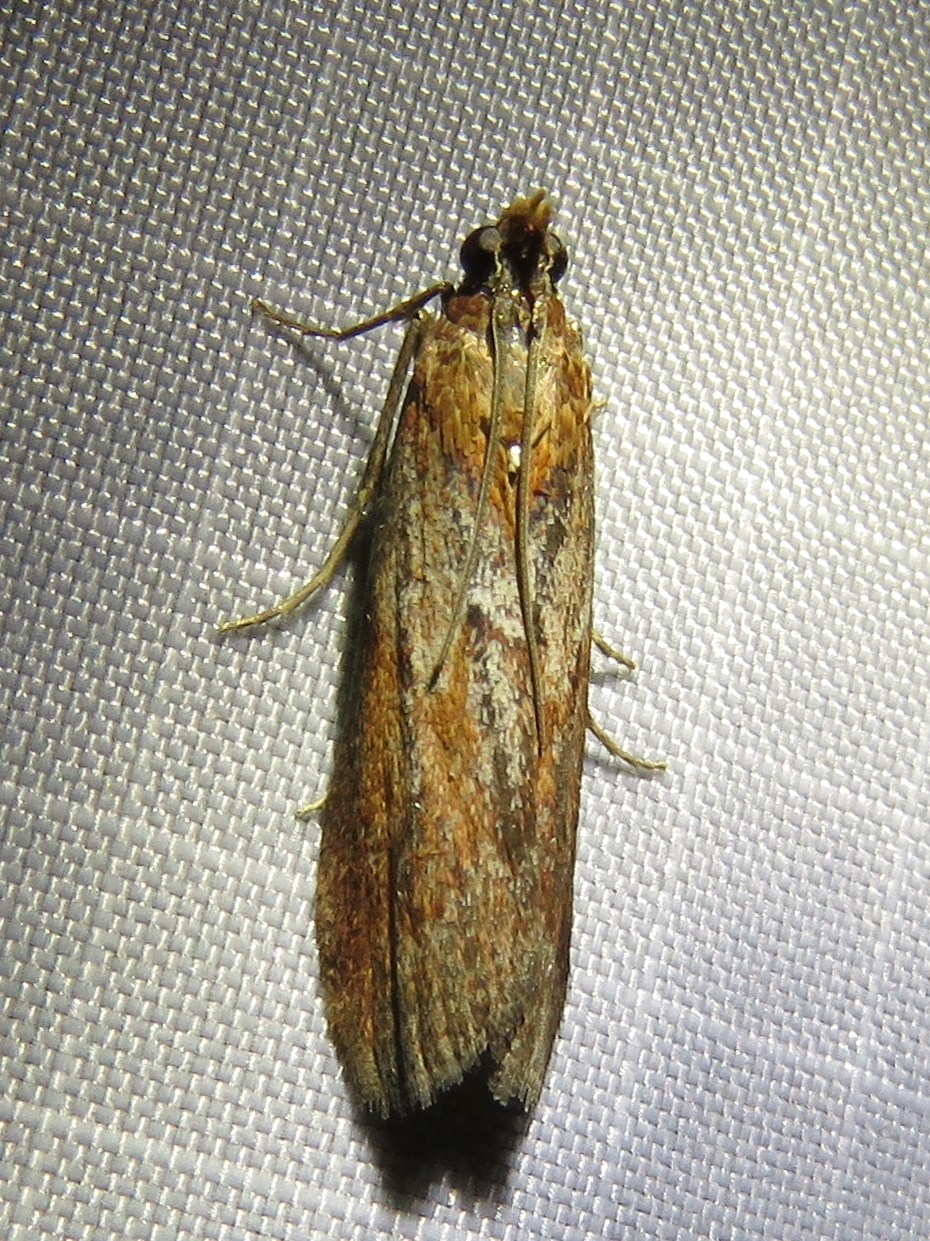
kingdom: Animalia
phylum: Arthropoda
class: Insecta
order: Lepidoptera
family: Pyralidae
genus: Selagia
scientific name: Selagia spadicella
